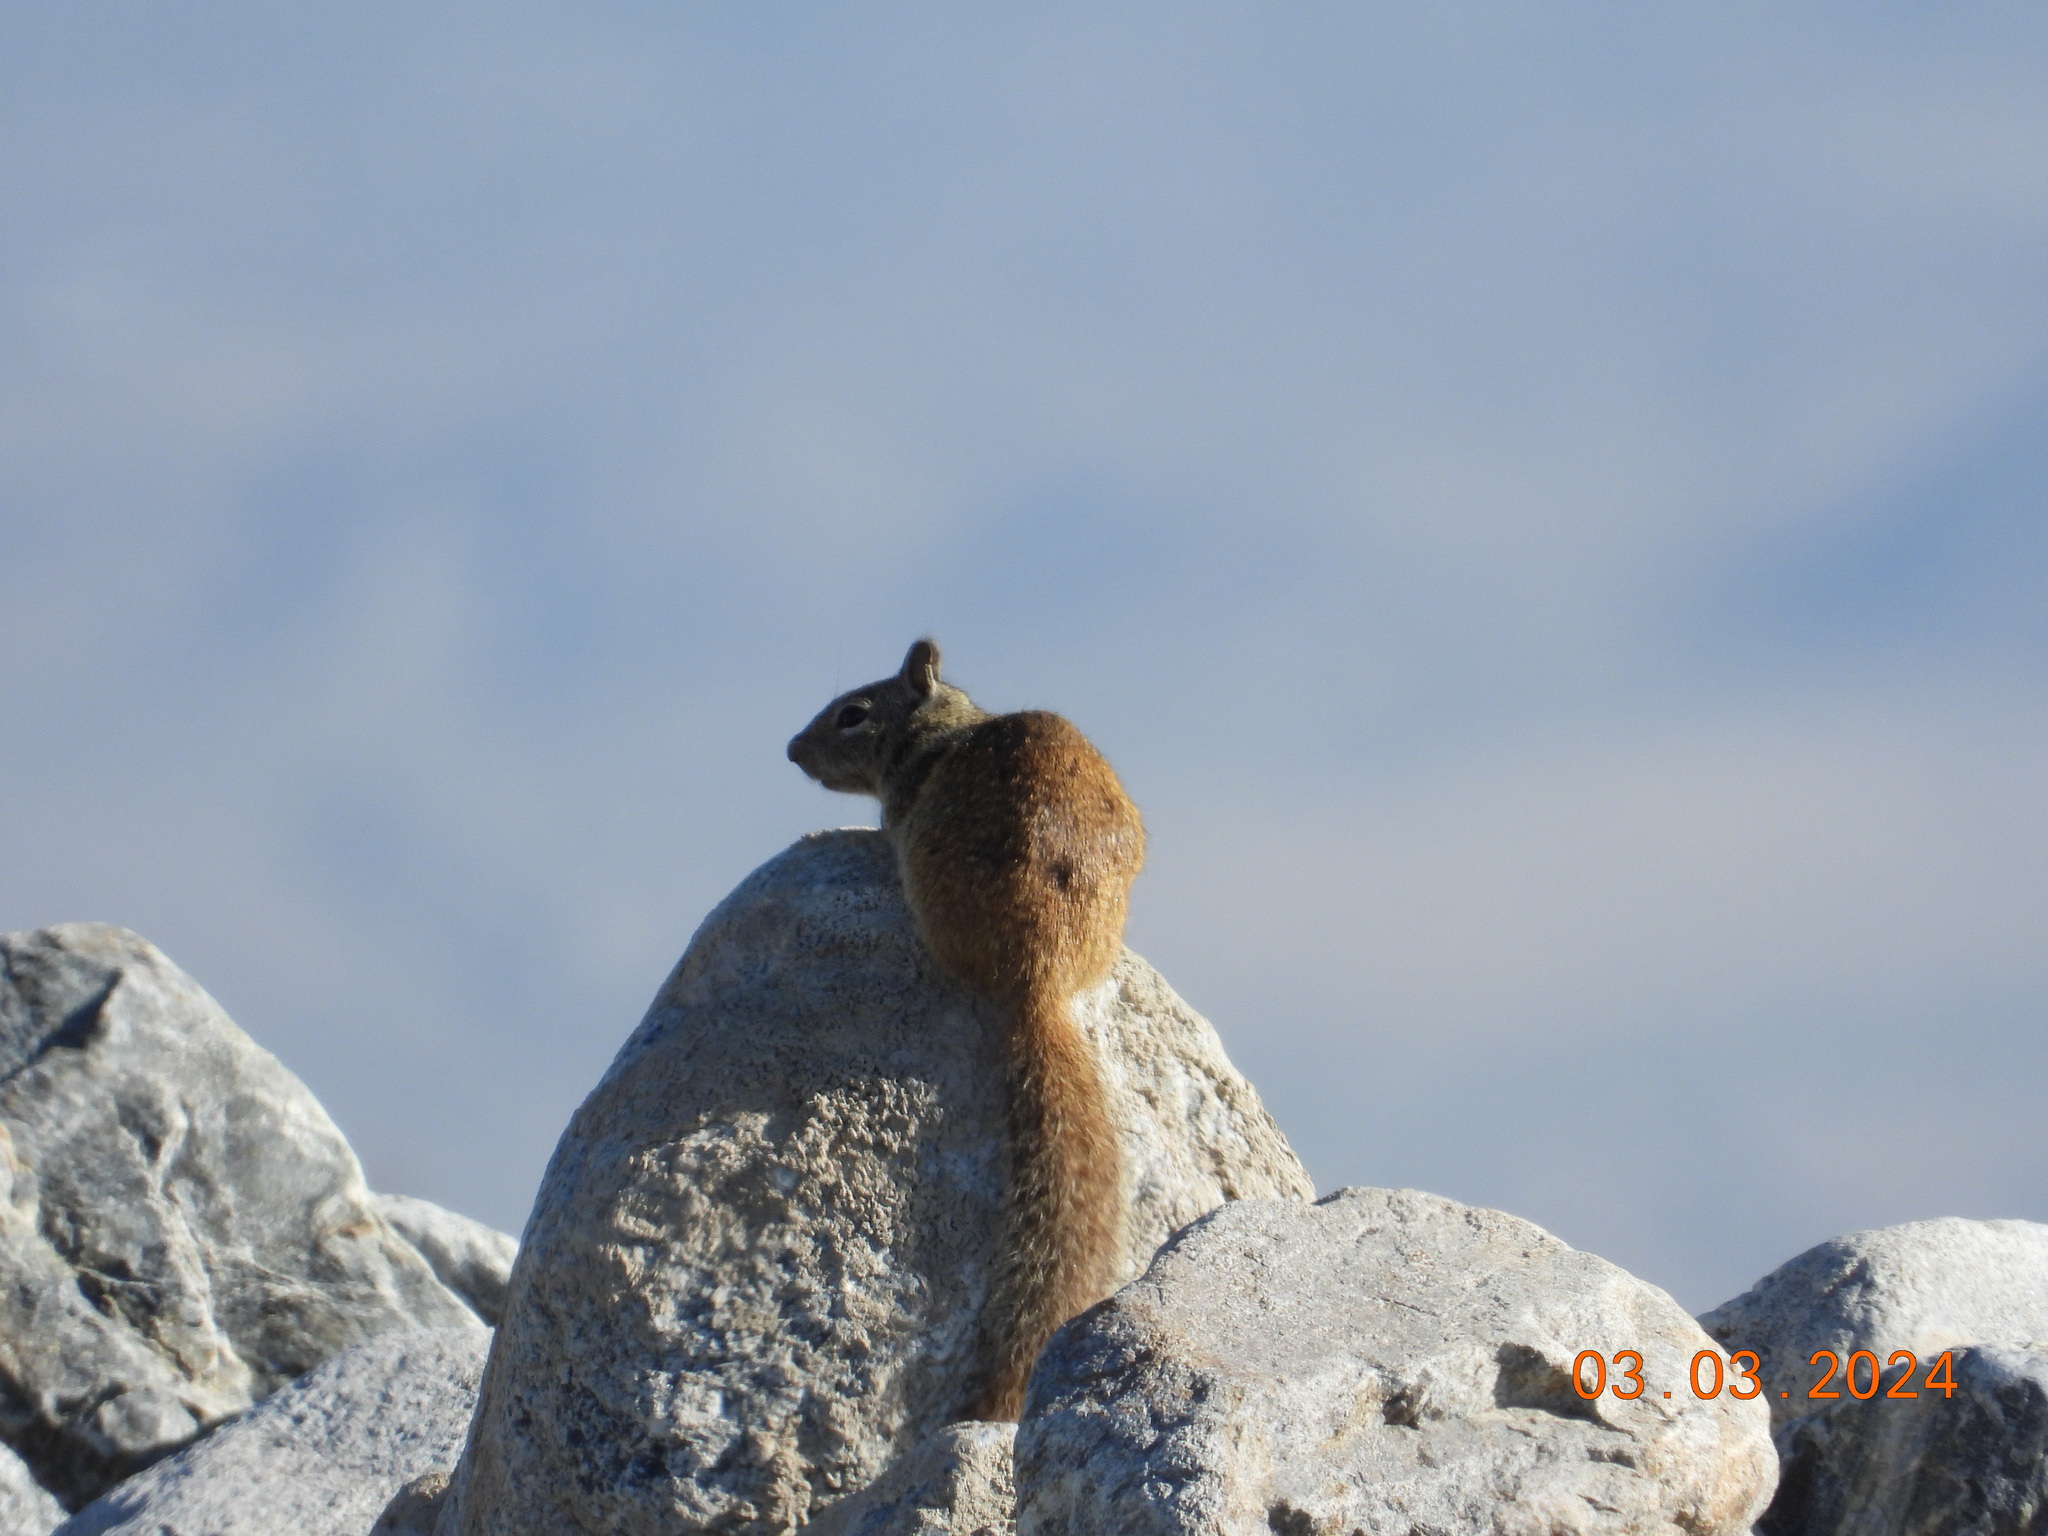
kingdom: Animalia
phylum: Chordata
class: Mammalia
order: Rodentia
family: Sciuridae
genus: Otospermophilus
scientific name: Otospermophilus beecheyi
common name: California ground squirrel
